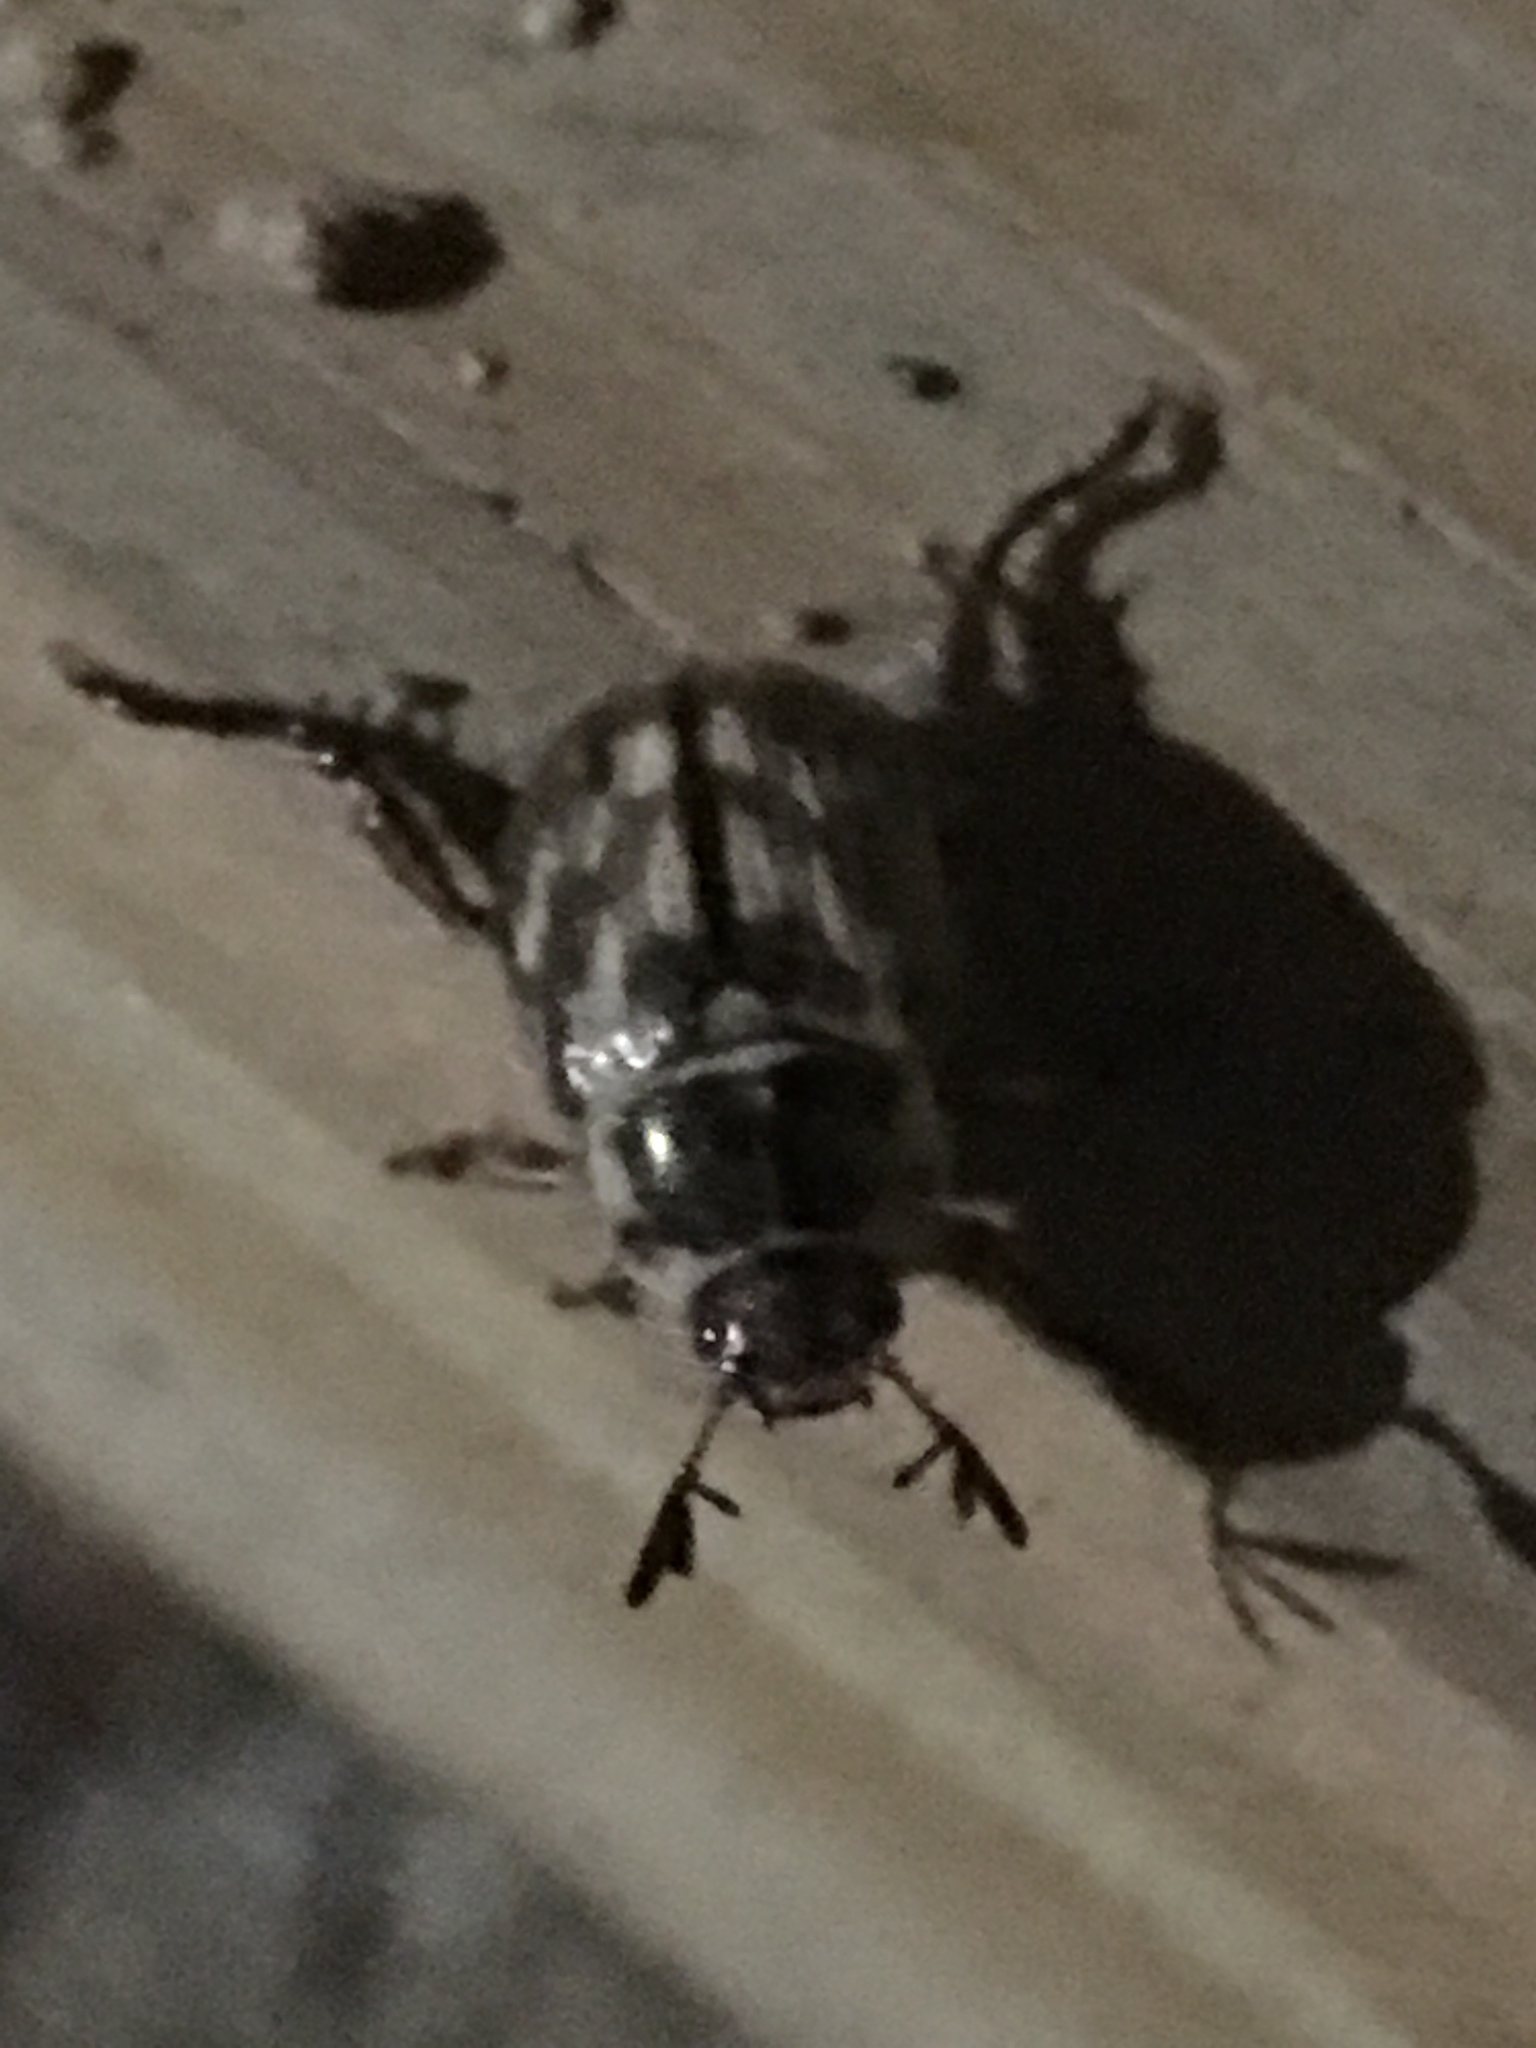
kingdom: Animalia
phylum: Arthropoda
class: Insecta
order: Coleoptera
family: Scarabaeidae
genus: Exomala
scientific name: Exomala orientalis
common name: Oriental beetle
